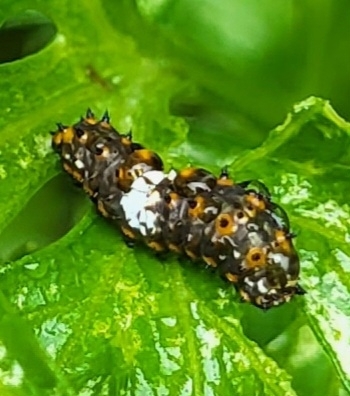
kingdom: Animalia
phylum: Arthropoda
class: Insecta
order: Lepidoptera
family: Papilionidae
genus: Papilio
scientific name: Papilio polyxenes
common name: Black swallowtail
